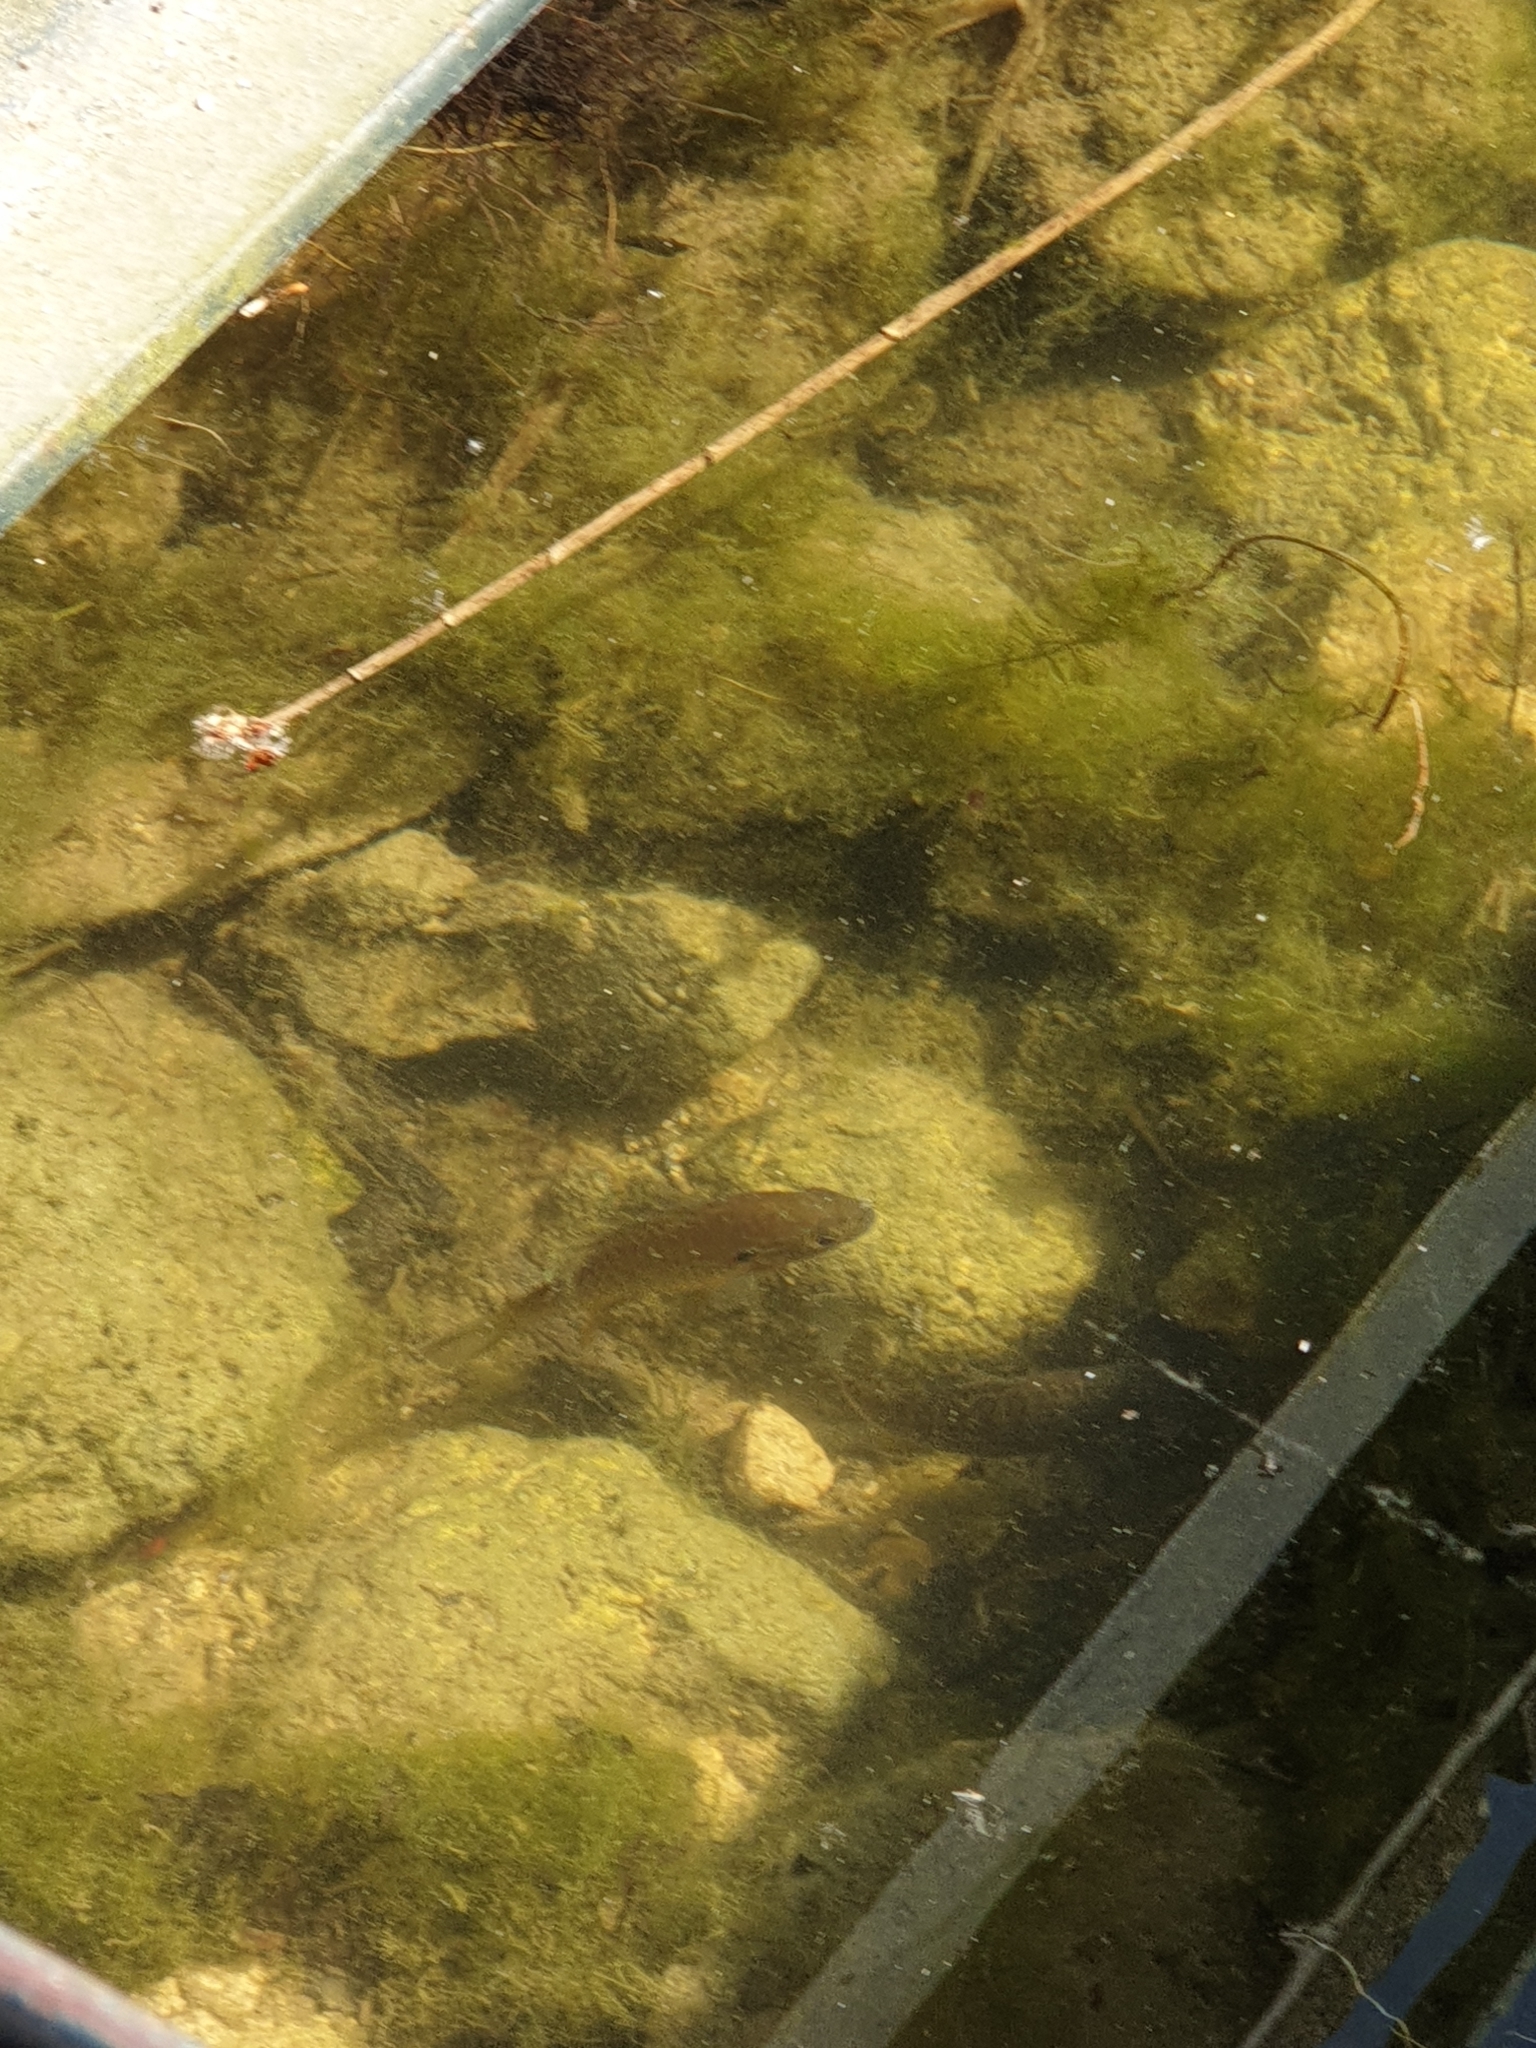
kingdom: Animalia
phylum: Chordata
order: Perciformes
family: Centrarchidae
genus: Lepomis
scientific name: Lepomis gibbosus
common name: Pumpkinseed
